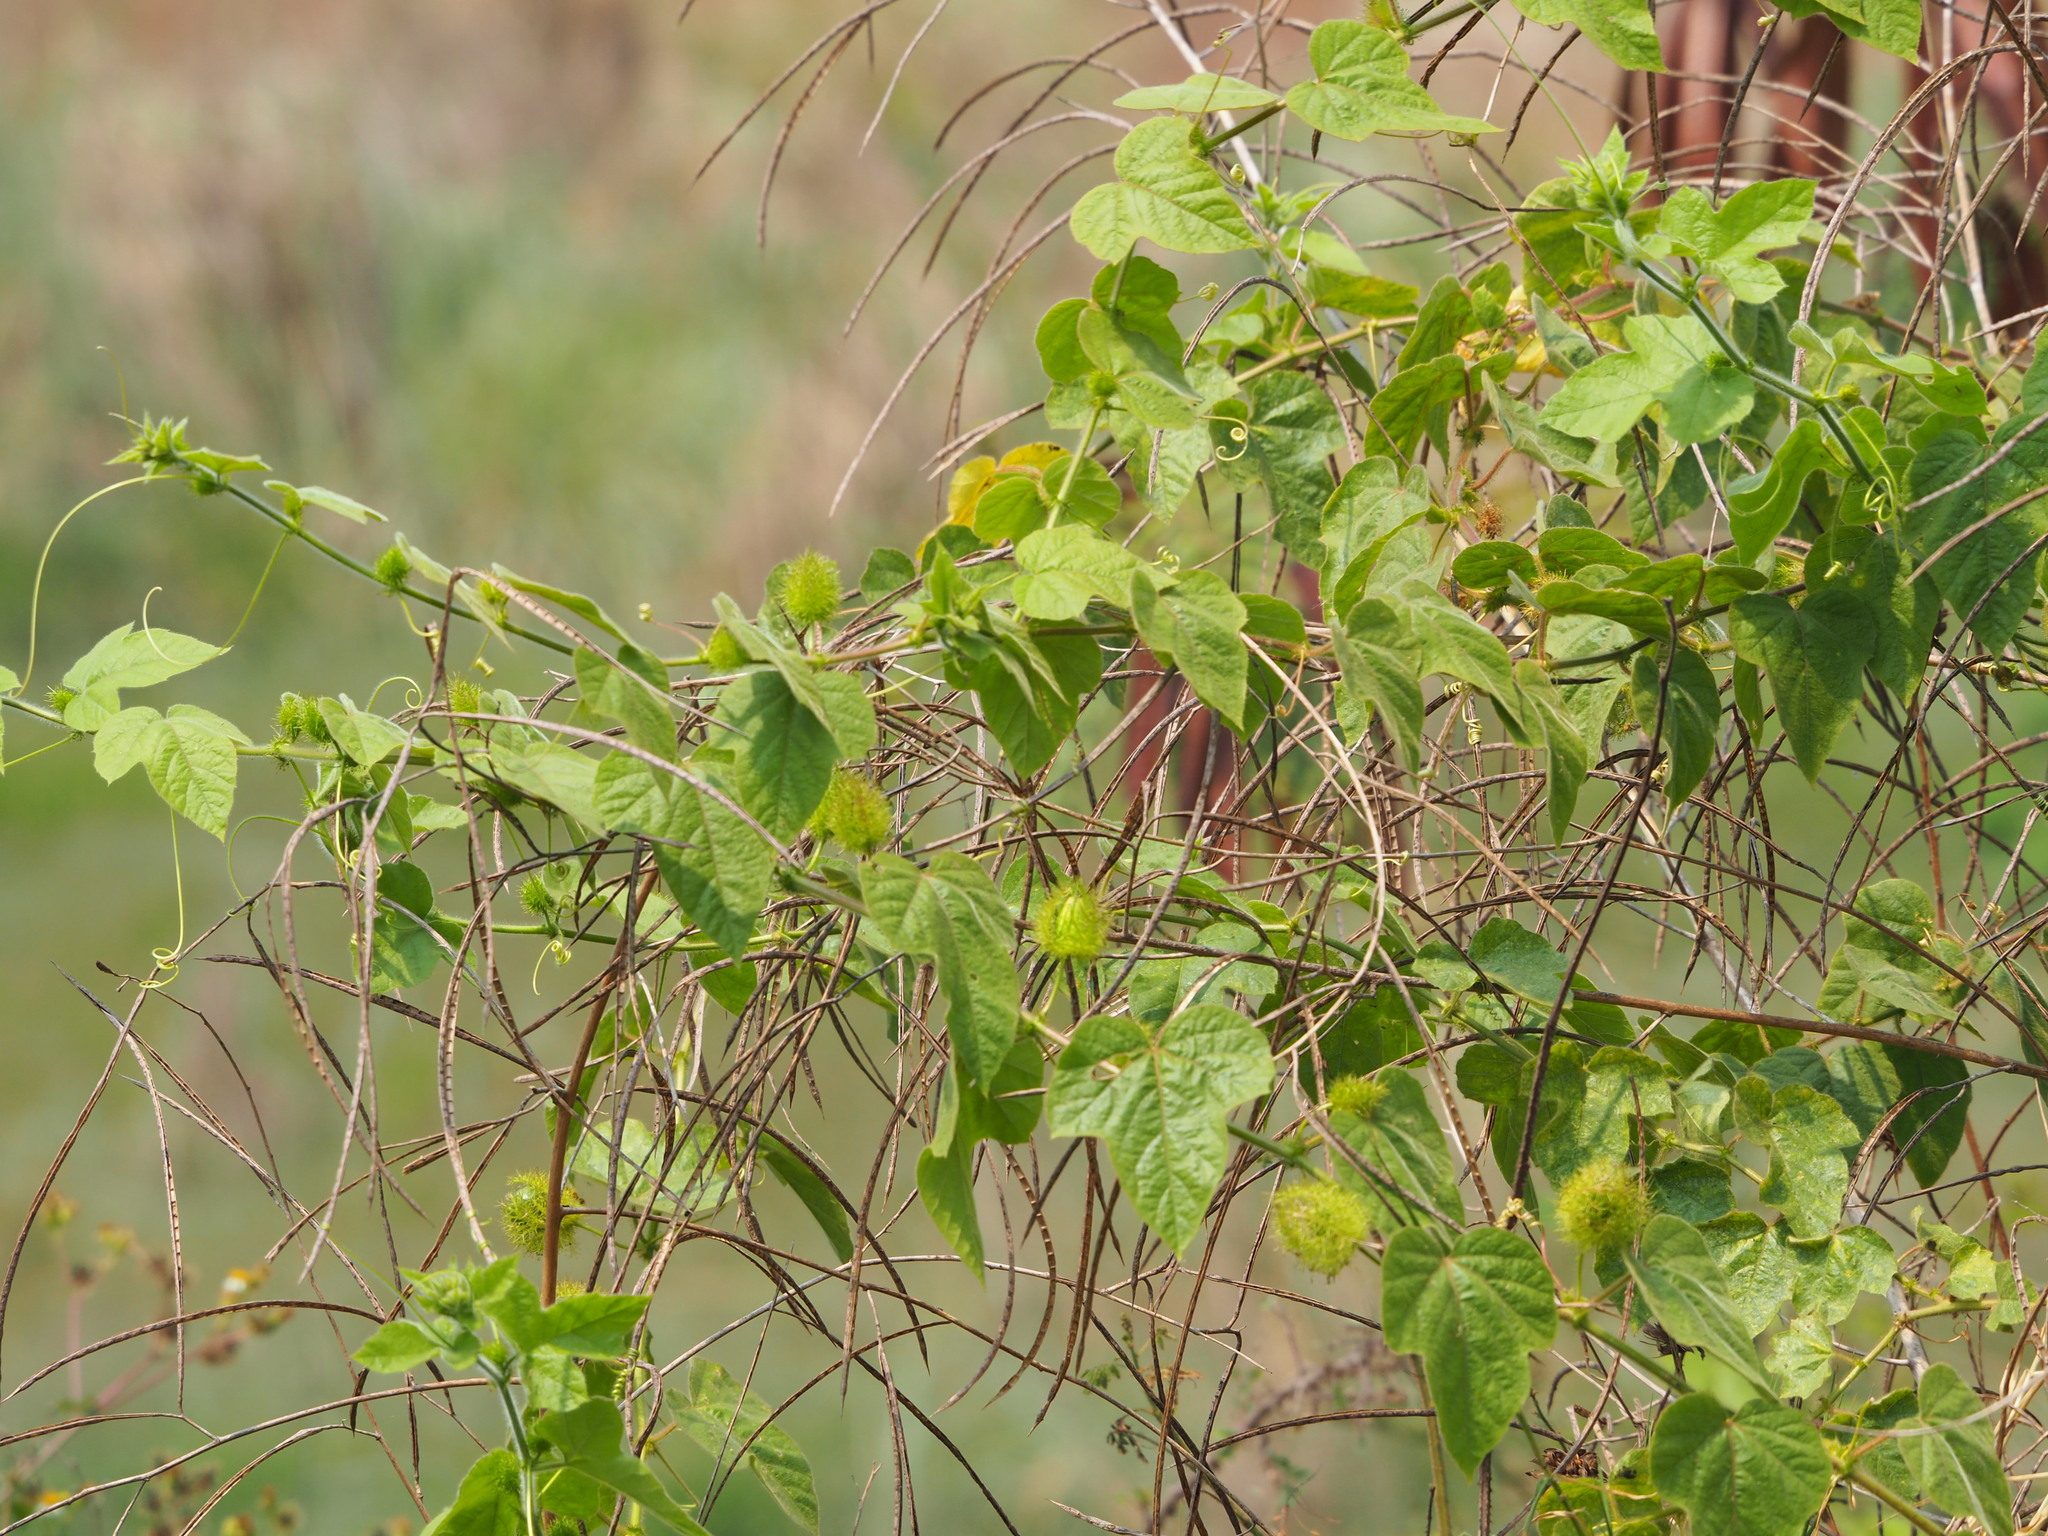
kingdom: Plantae
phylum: Tracheophyta
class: Magnoliopsida
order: Malpighiales
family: Passifloraceae
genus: Passiflora
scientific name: Passiflora vesicaria
